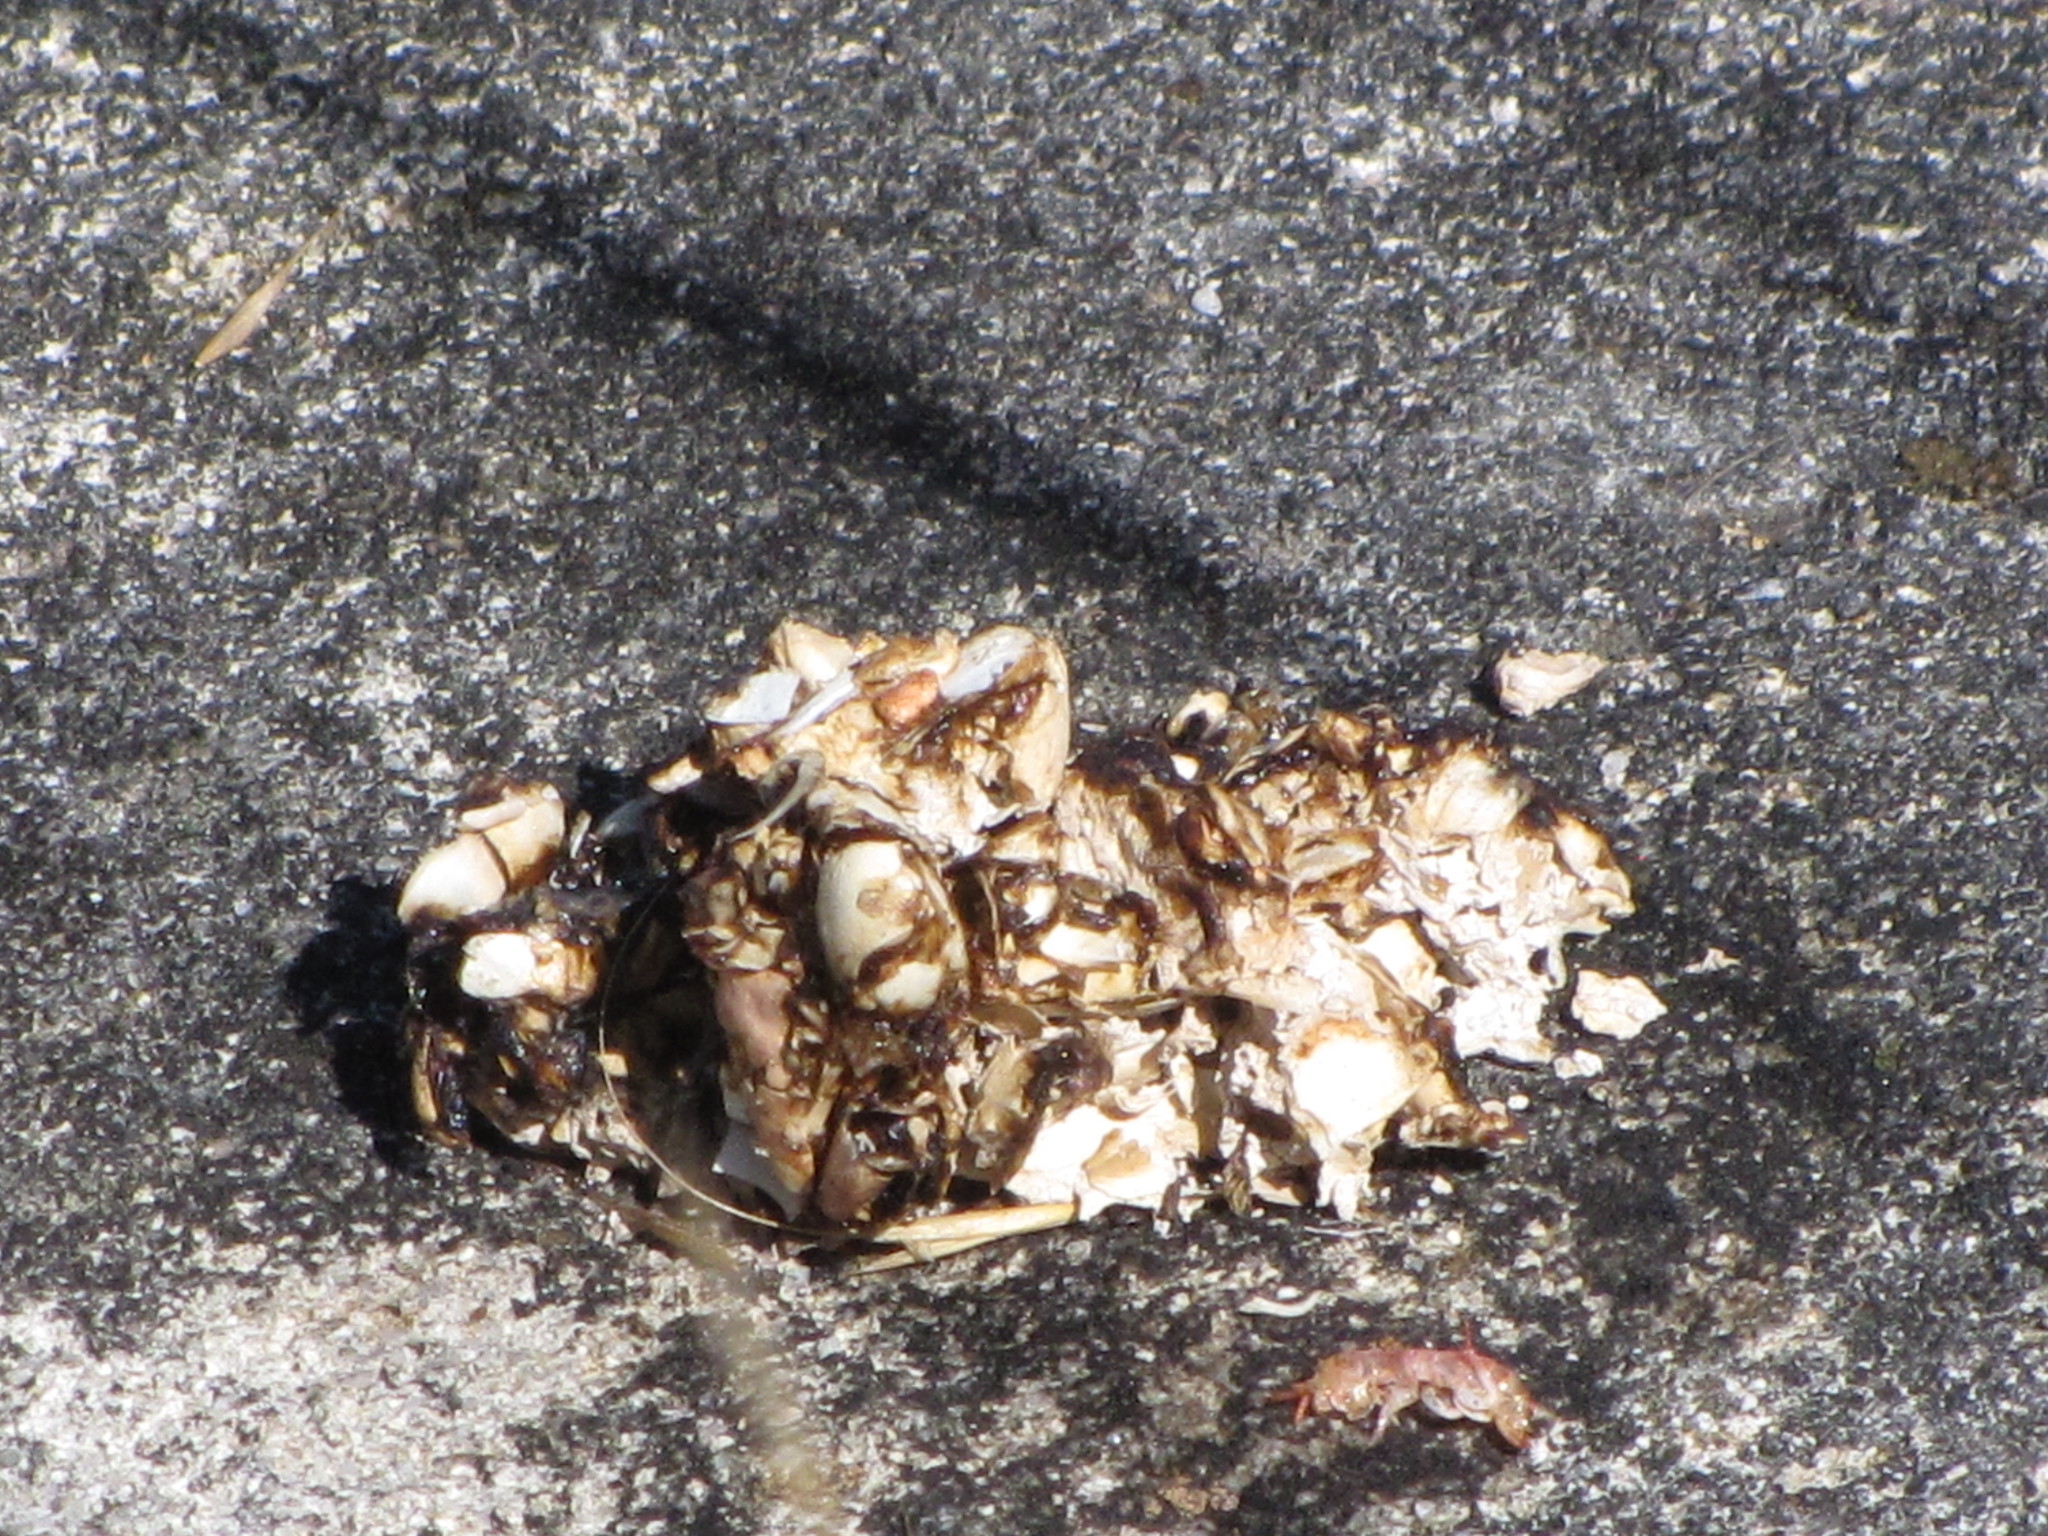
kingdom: Animalia
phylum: Chordata
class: Mammalia
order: Carnivora
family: Mustelidae
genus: Lontra
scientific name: Lontra canadensis
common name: North american river otter
